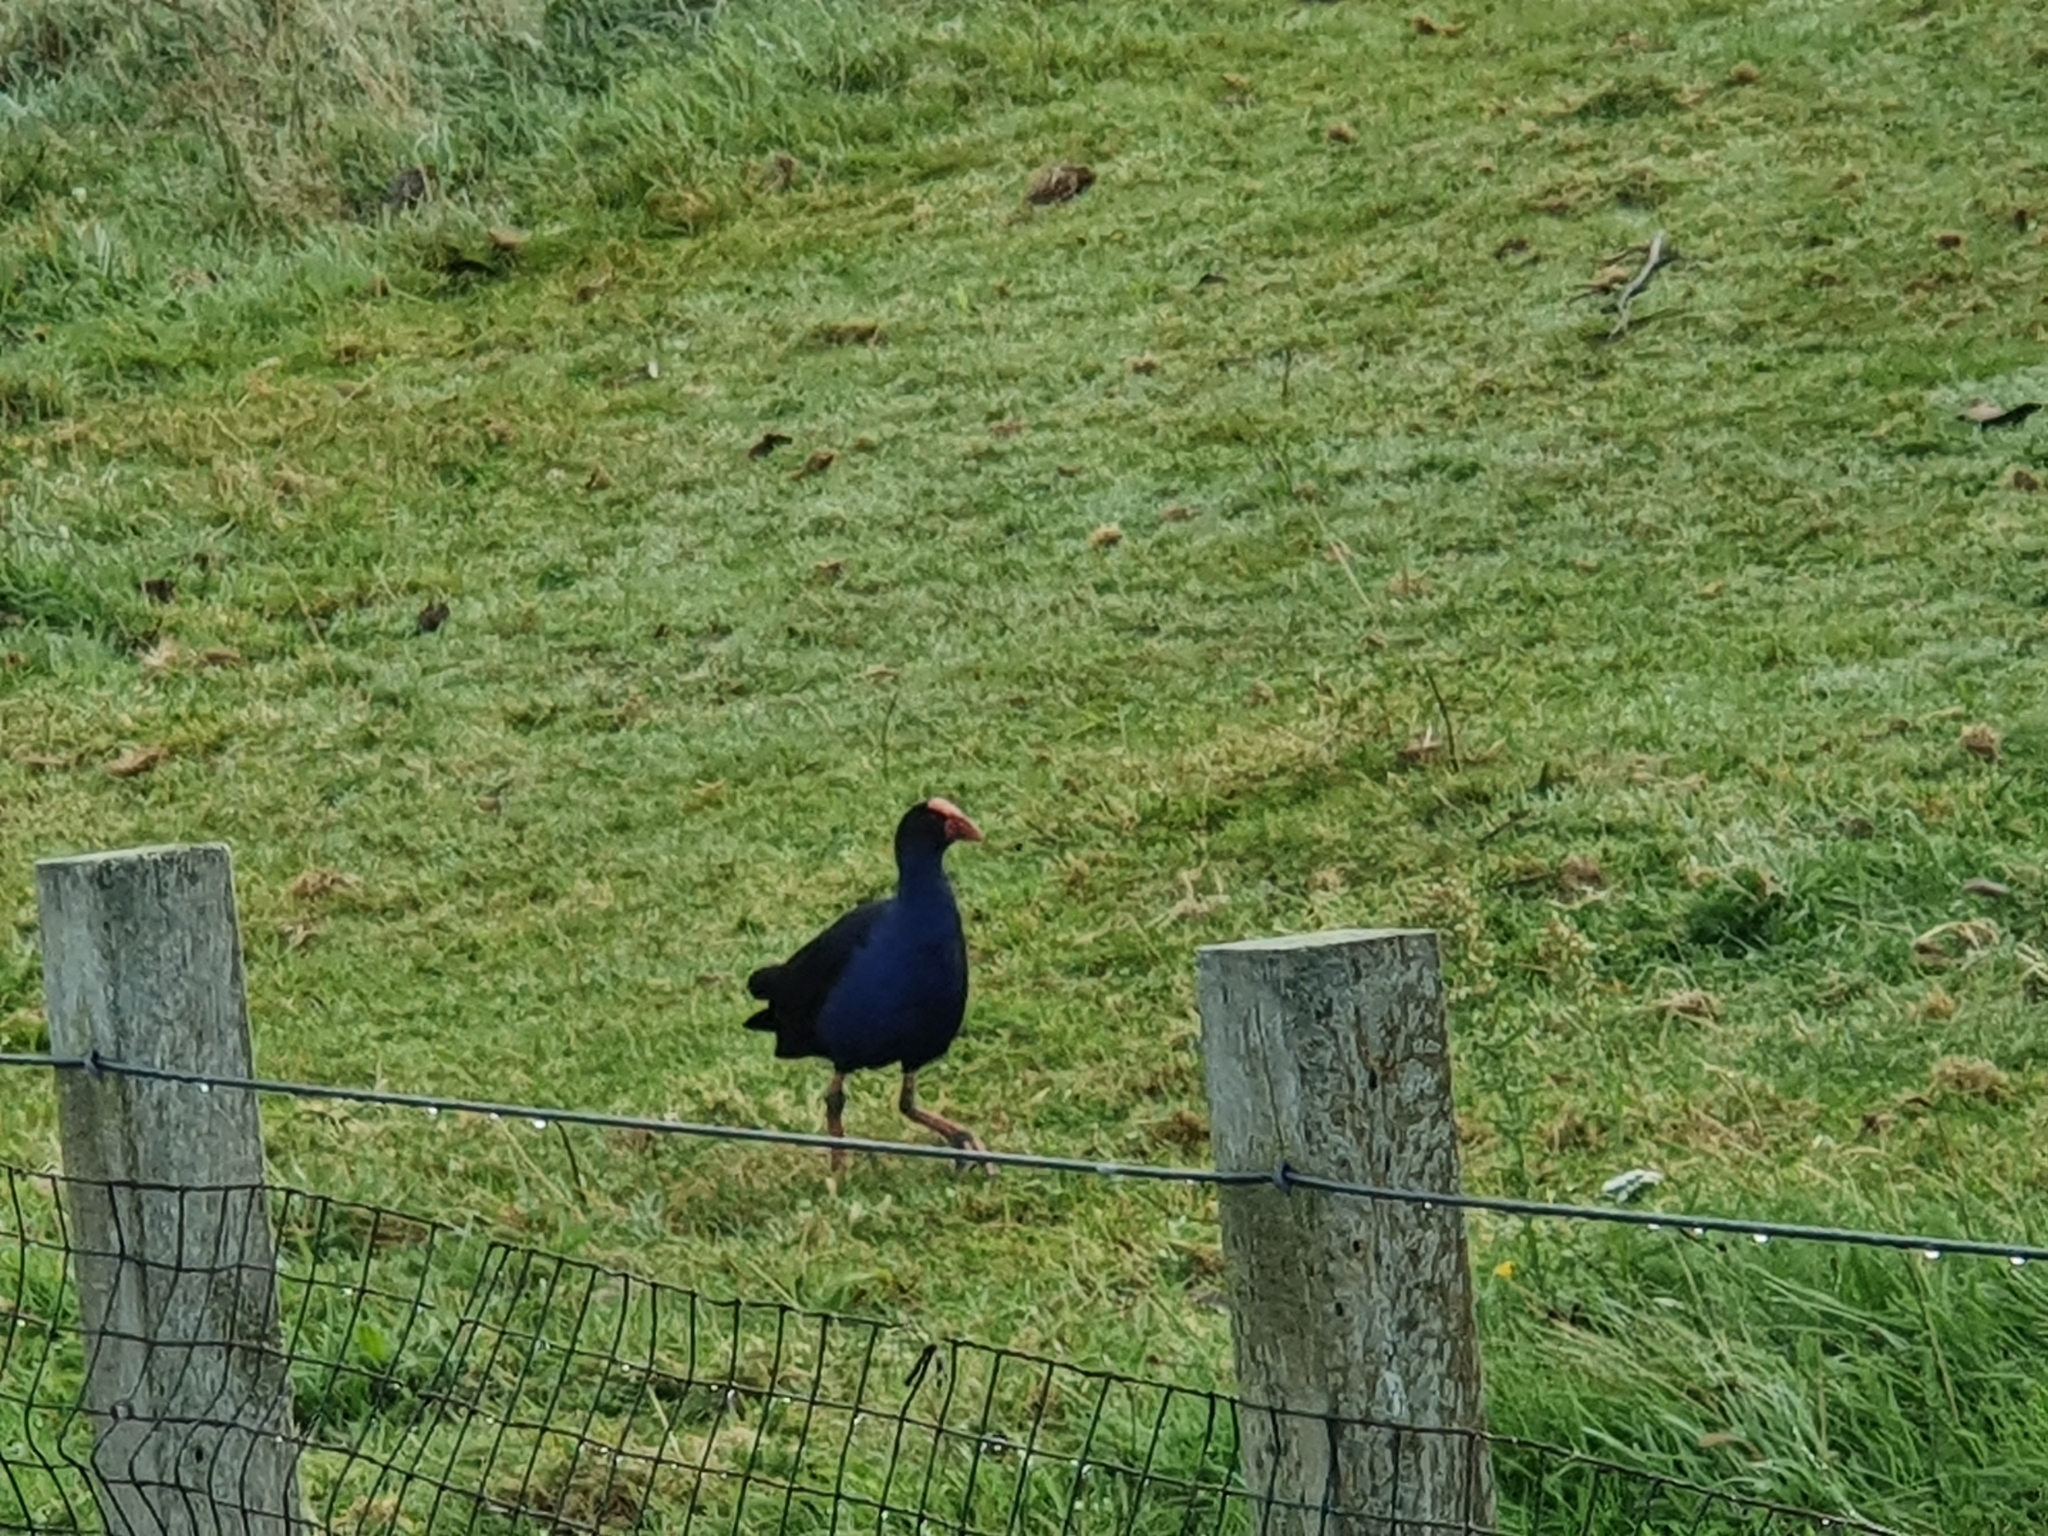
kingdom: Animalia
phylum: Chordata
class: Aves
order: Gruiformes
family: Rallidae
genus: Porphyrio
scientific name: Porphyrio melanotus
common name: Australasian swamphen
